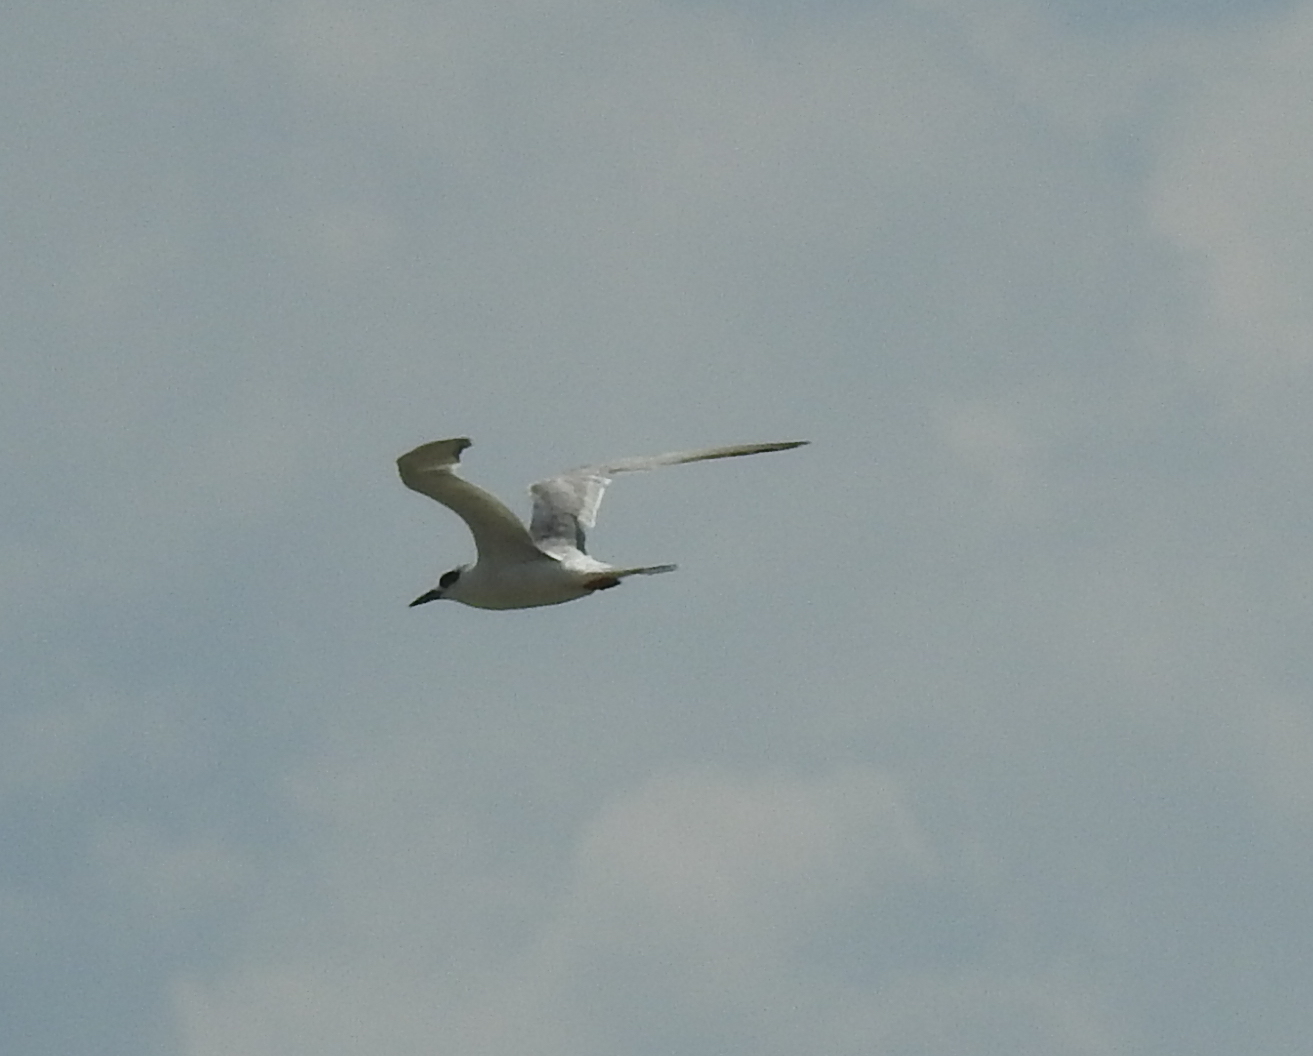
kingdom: Animalia
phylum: Chordata
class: Aves
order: Charadriiformes
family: Laridae
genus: Sterna
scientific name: Sterna forsteri
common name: Forster's tern
